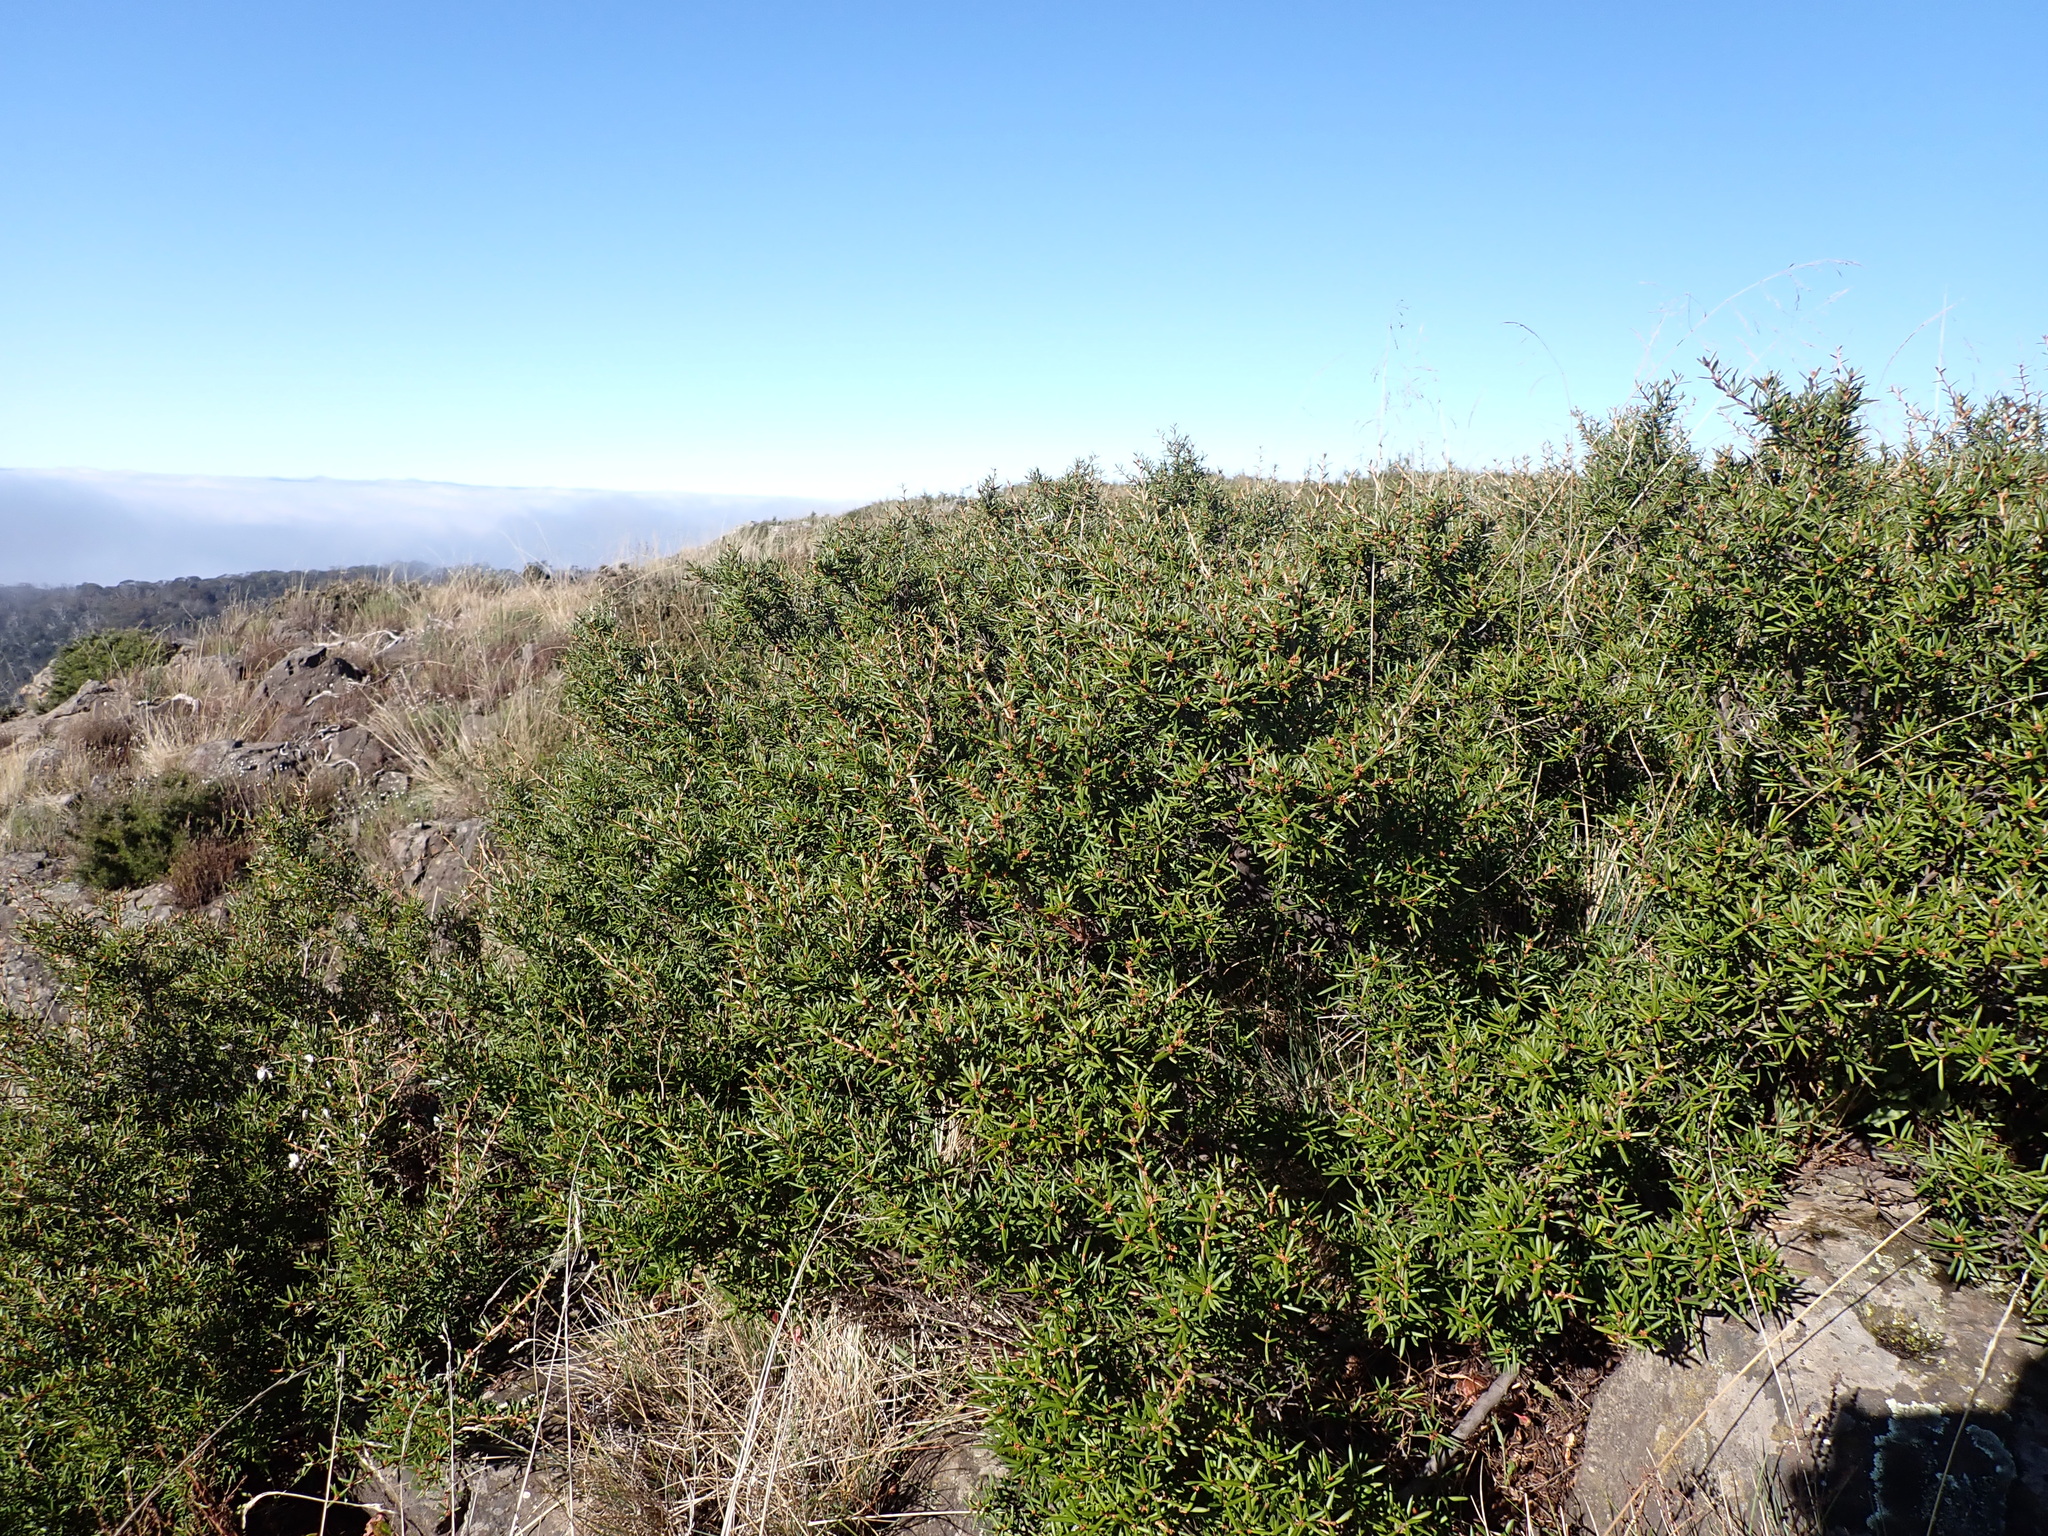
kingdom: Plantae
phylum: Tracheophyta
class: Magnoliopsida
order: Proteales
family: Proteaceae
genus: Grevillea
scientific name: Grevillea australis
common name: Alpine grevillea
